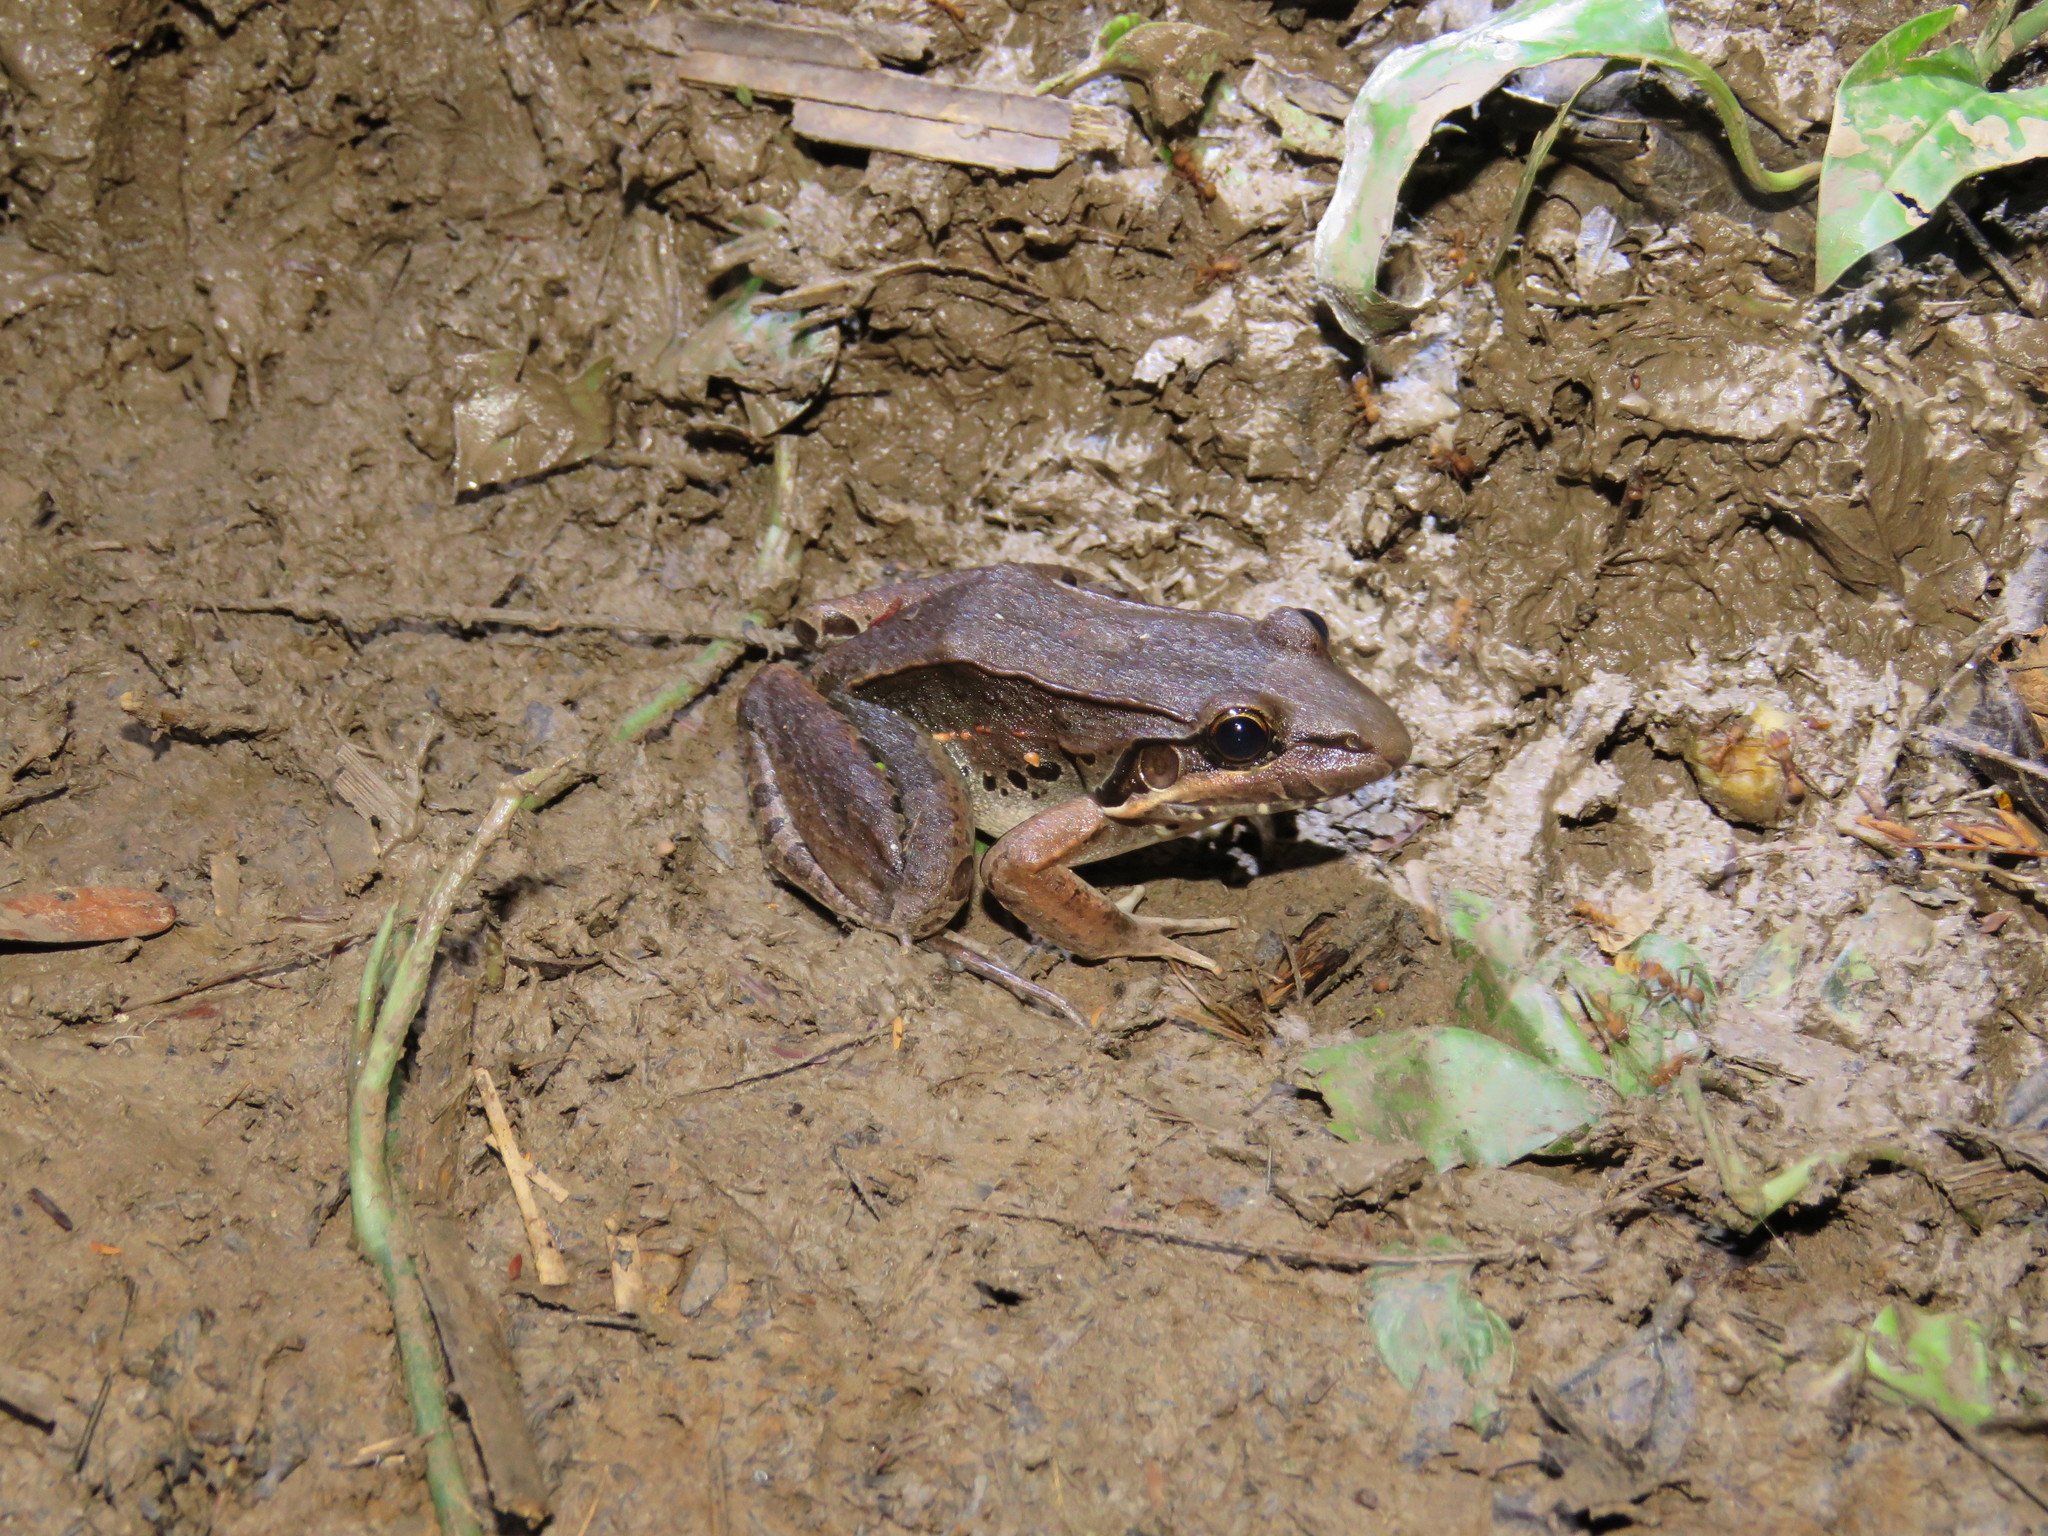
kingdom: Animalia
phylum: Chordata
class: Amphibia
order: Anura
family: Leptodactylidae
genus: Leptodactylus
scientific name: Leptodactylus bolivianus
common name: Bolivian white-lipped frog
